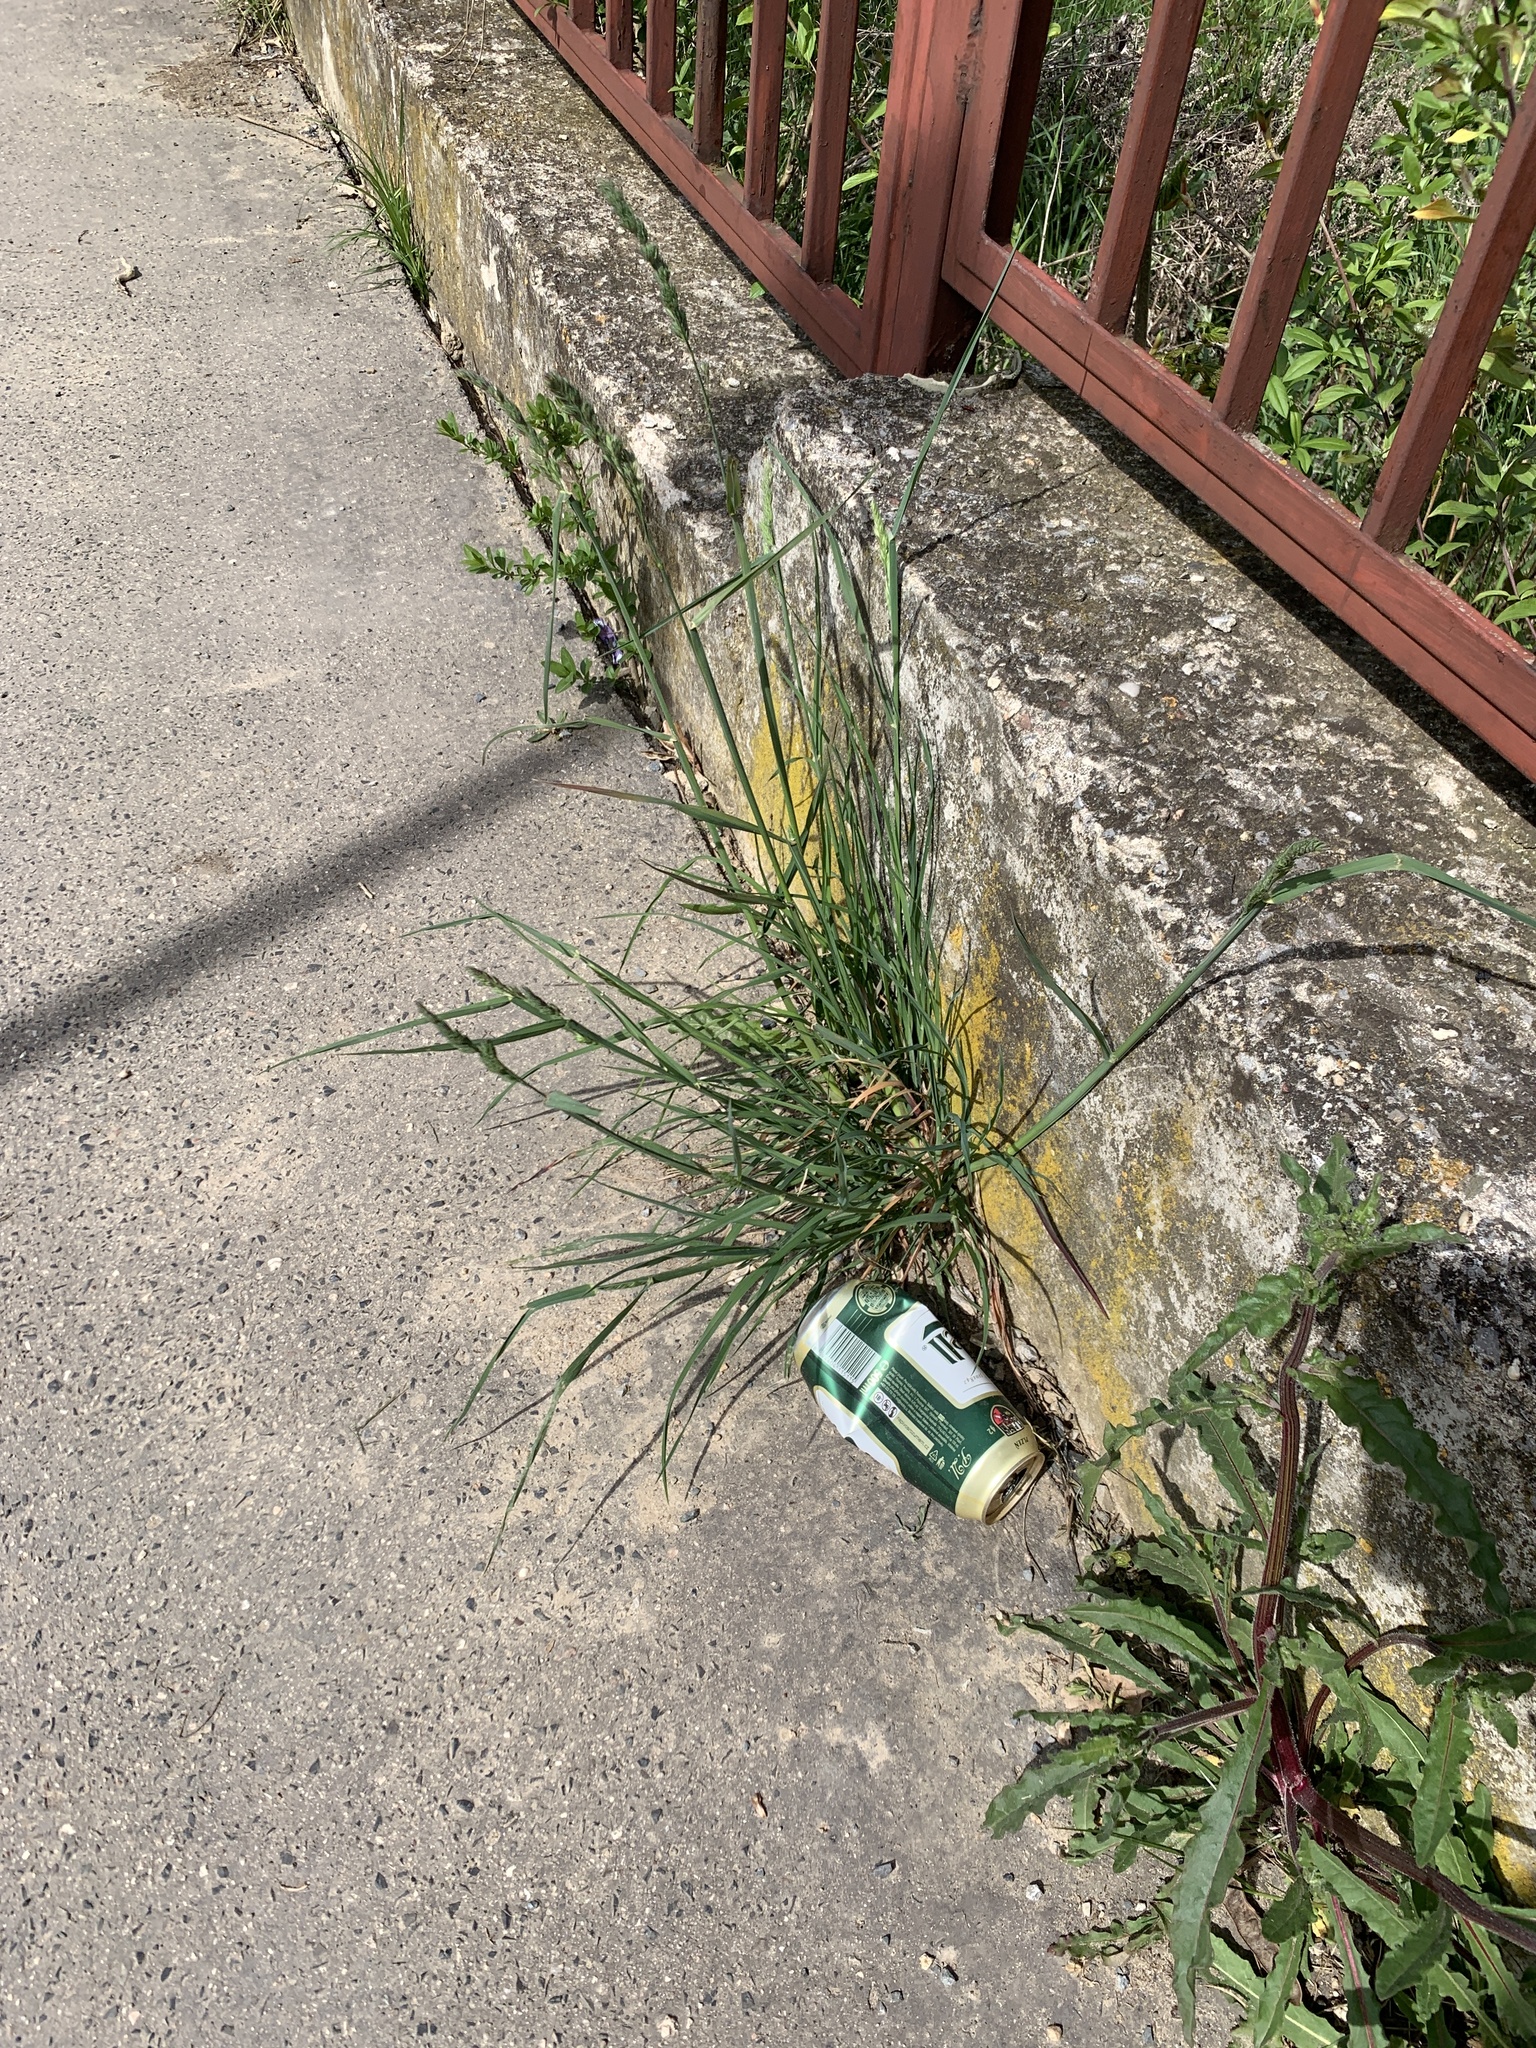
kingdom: Plantae
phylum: Tracheophyta
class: Liliopsida
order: Poales
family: Poaceae
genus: Dactylis
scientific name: Dactylis glomerata
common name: Orchardgrass
